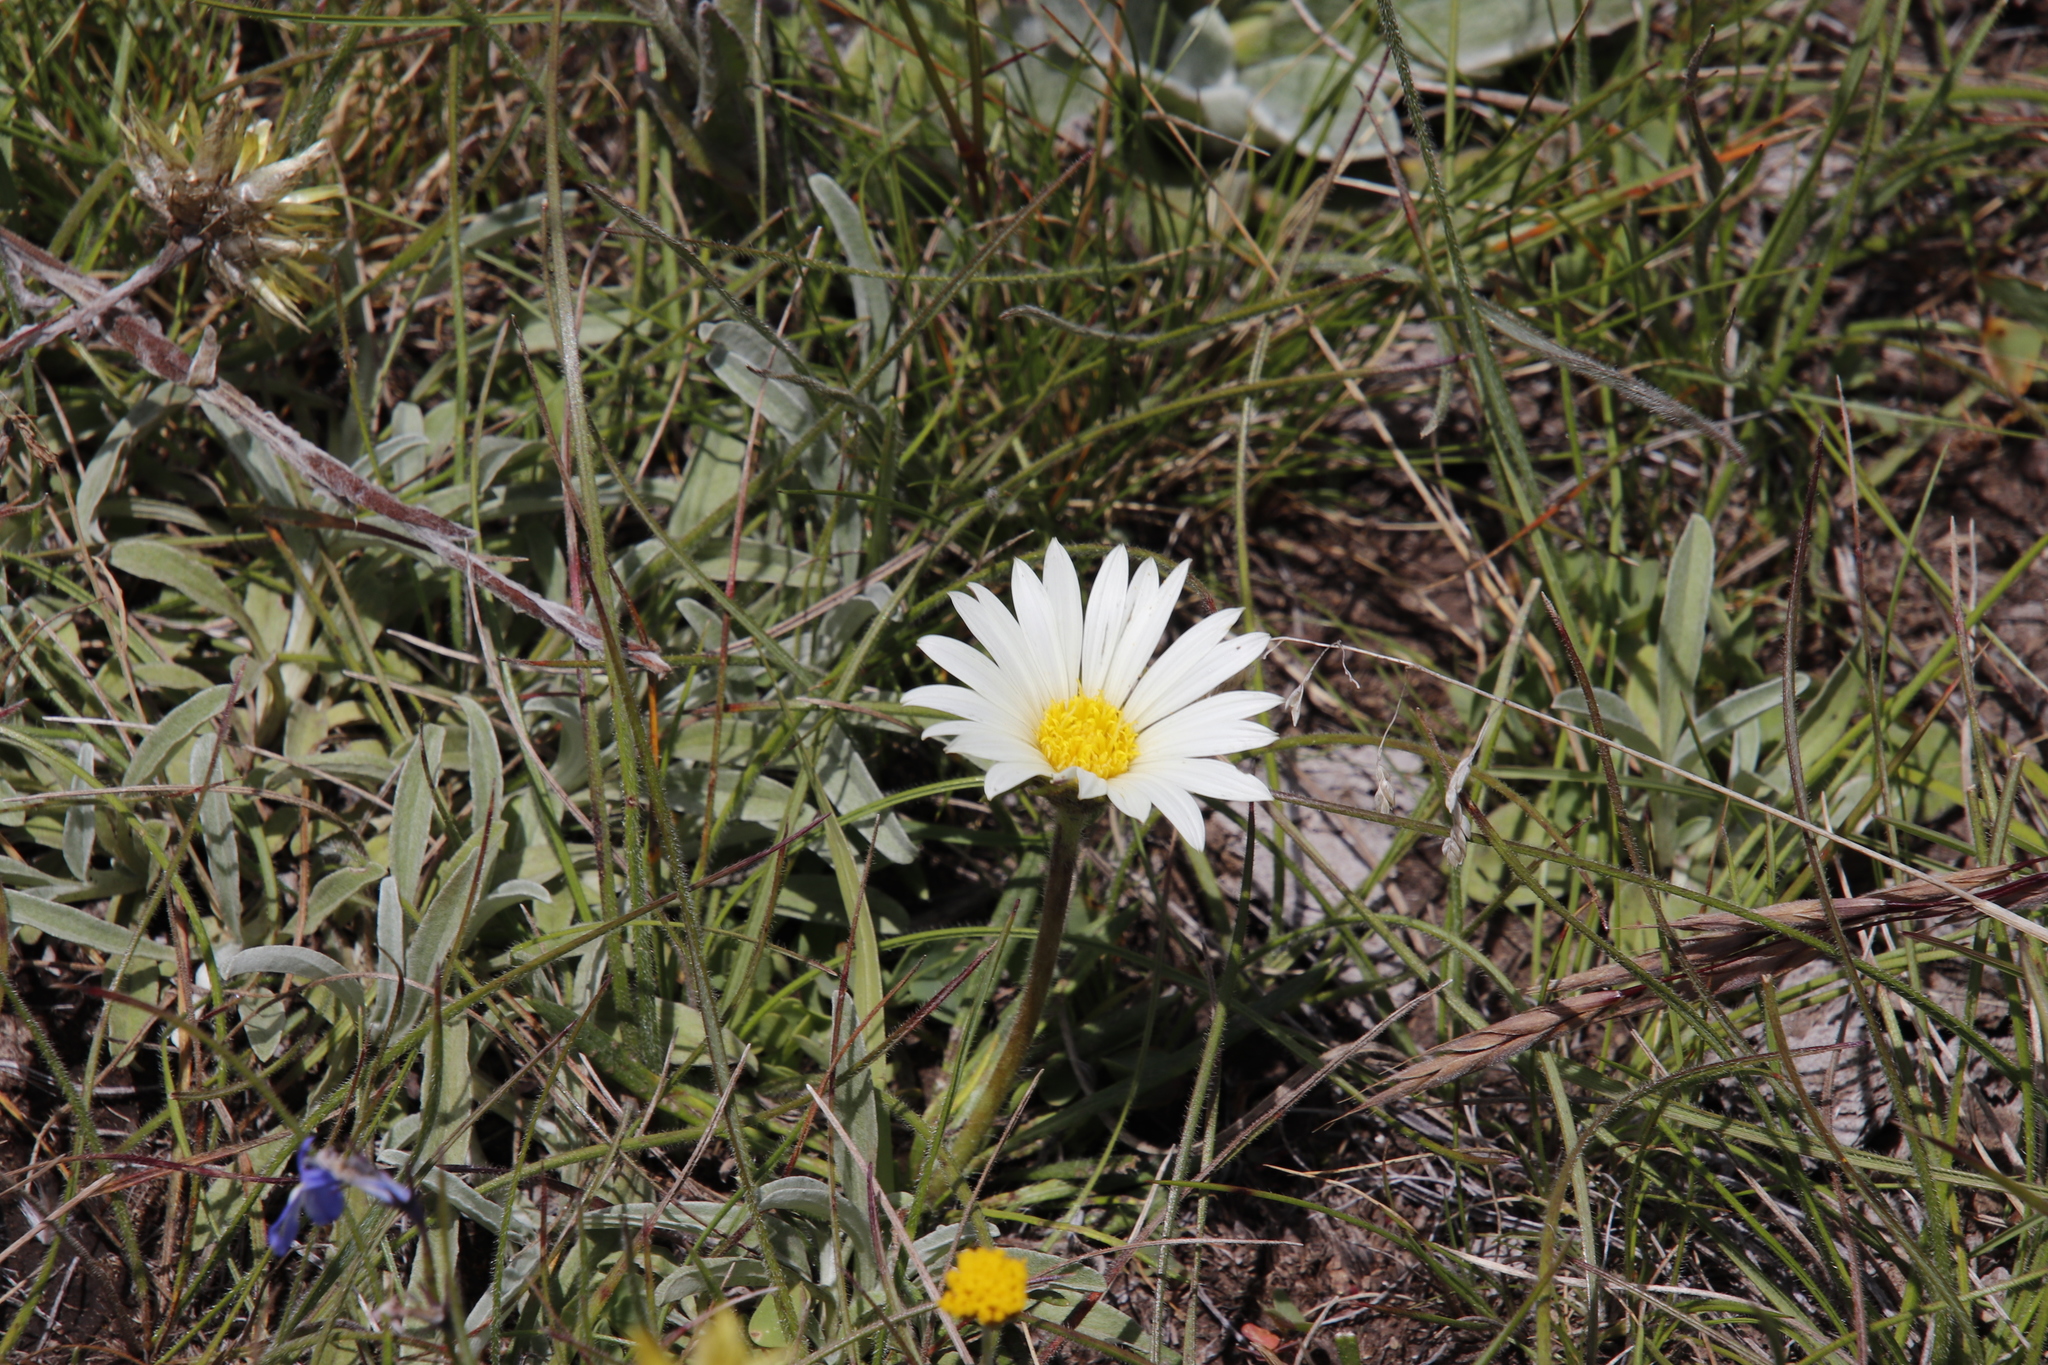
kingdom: Plantae
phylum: Tracheophyta
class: Magnoliopsida
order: Asterales
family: Asteraceae
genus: Roessleria
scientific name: Roessleria armerioides
